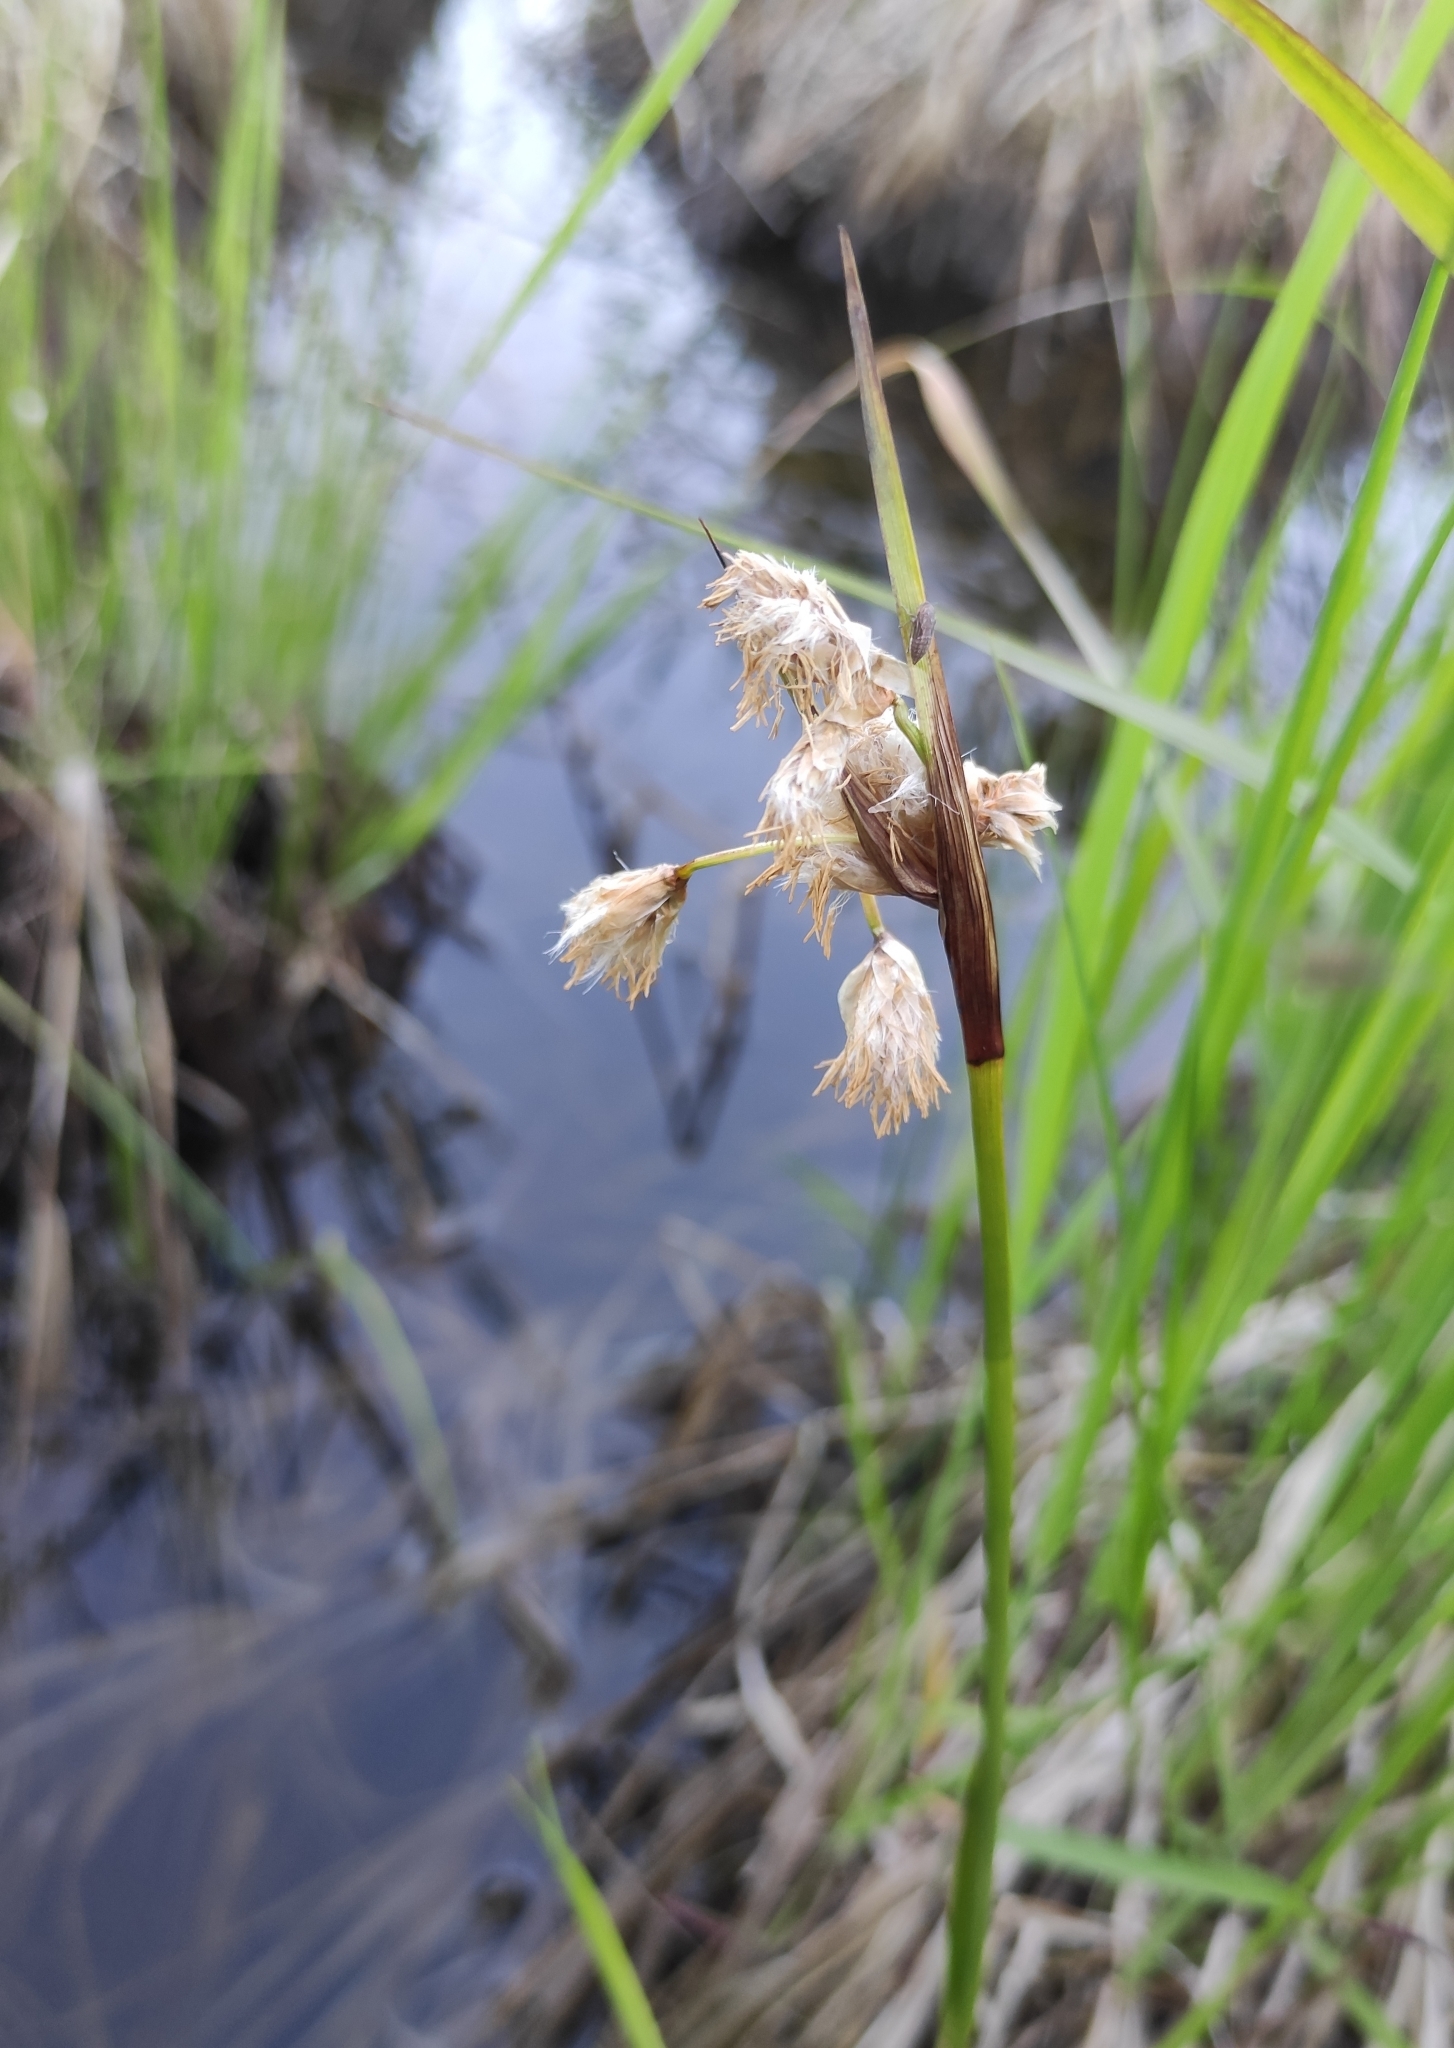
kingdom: Plantae
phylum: Tracheophyta
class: Liliopsida
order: Poales
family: Cyperaceae
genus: Eriophorum
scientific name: Eriophorum angustifolium
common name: Common cottongrass
